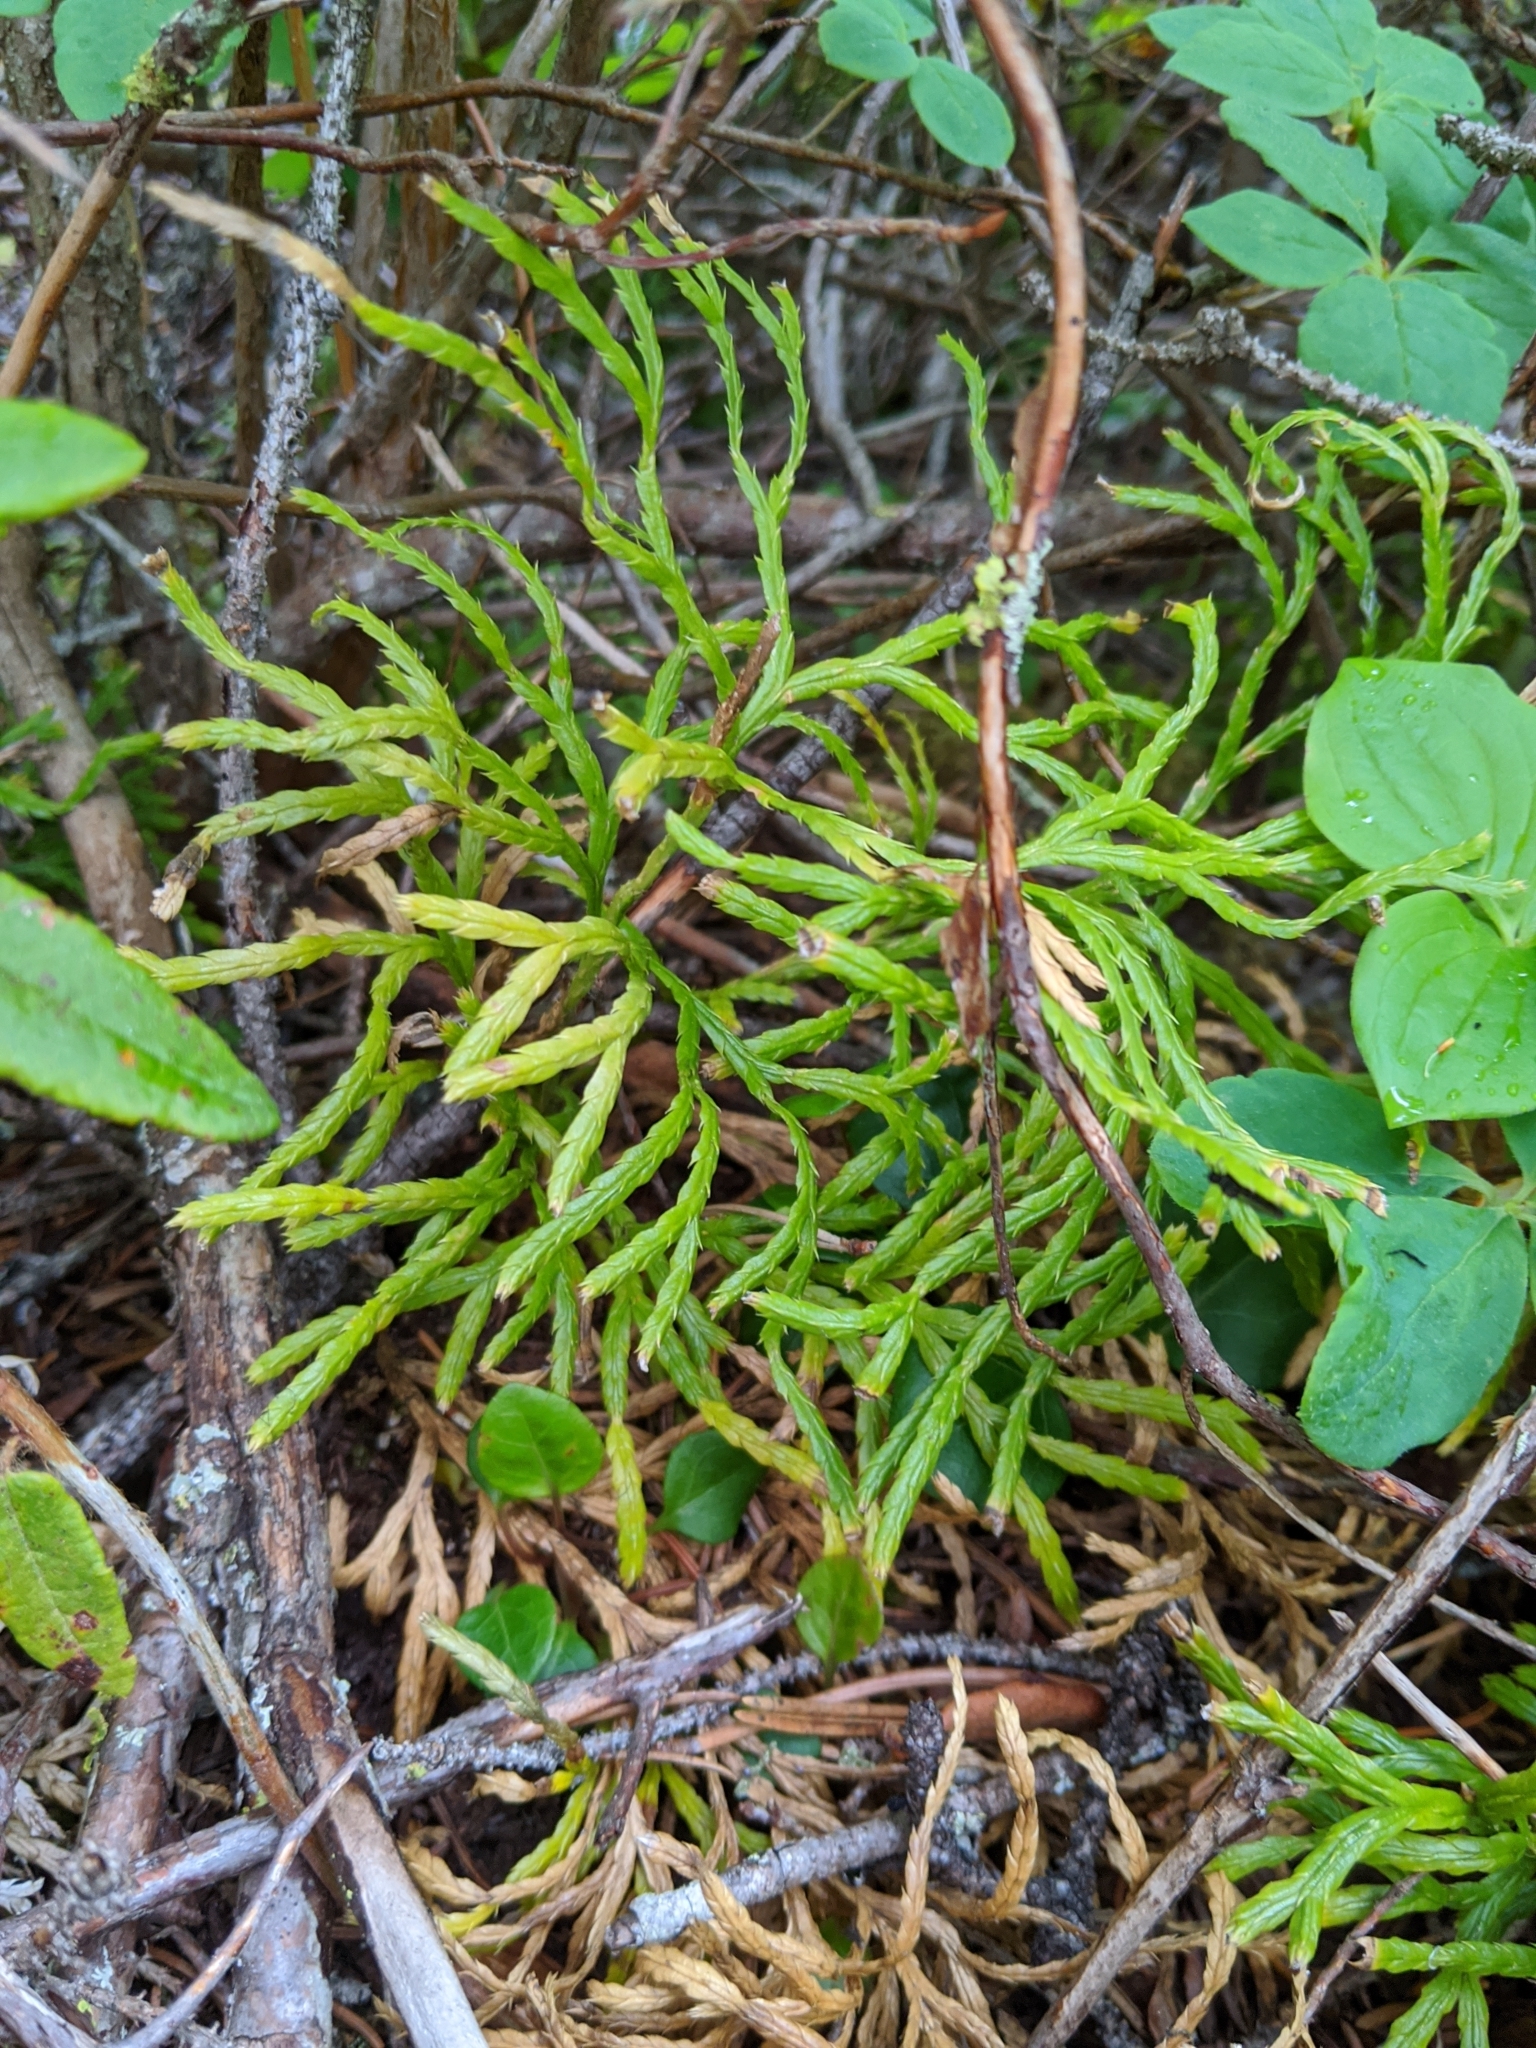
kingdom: Plantae
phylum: Tracheophyta
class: Lycopodiopsida
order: Lycopodiales
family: Lycopodiaceae
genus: Diphasiastrum
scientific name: Diphasiastrum complanatum
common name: Northern running-pine
